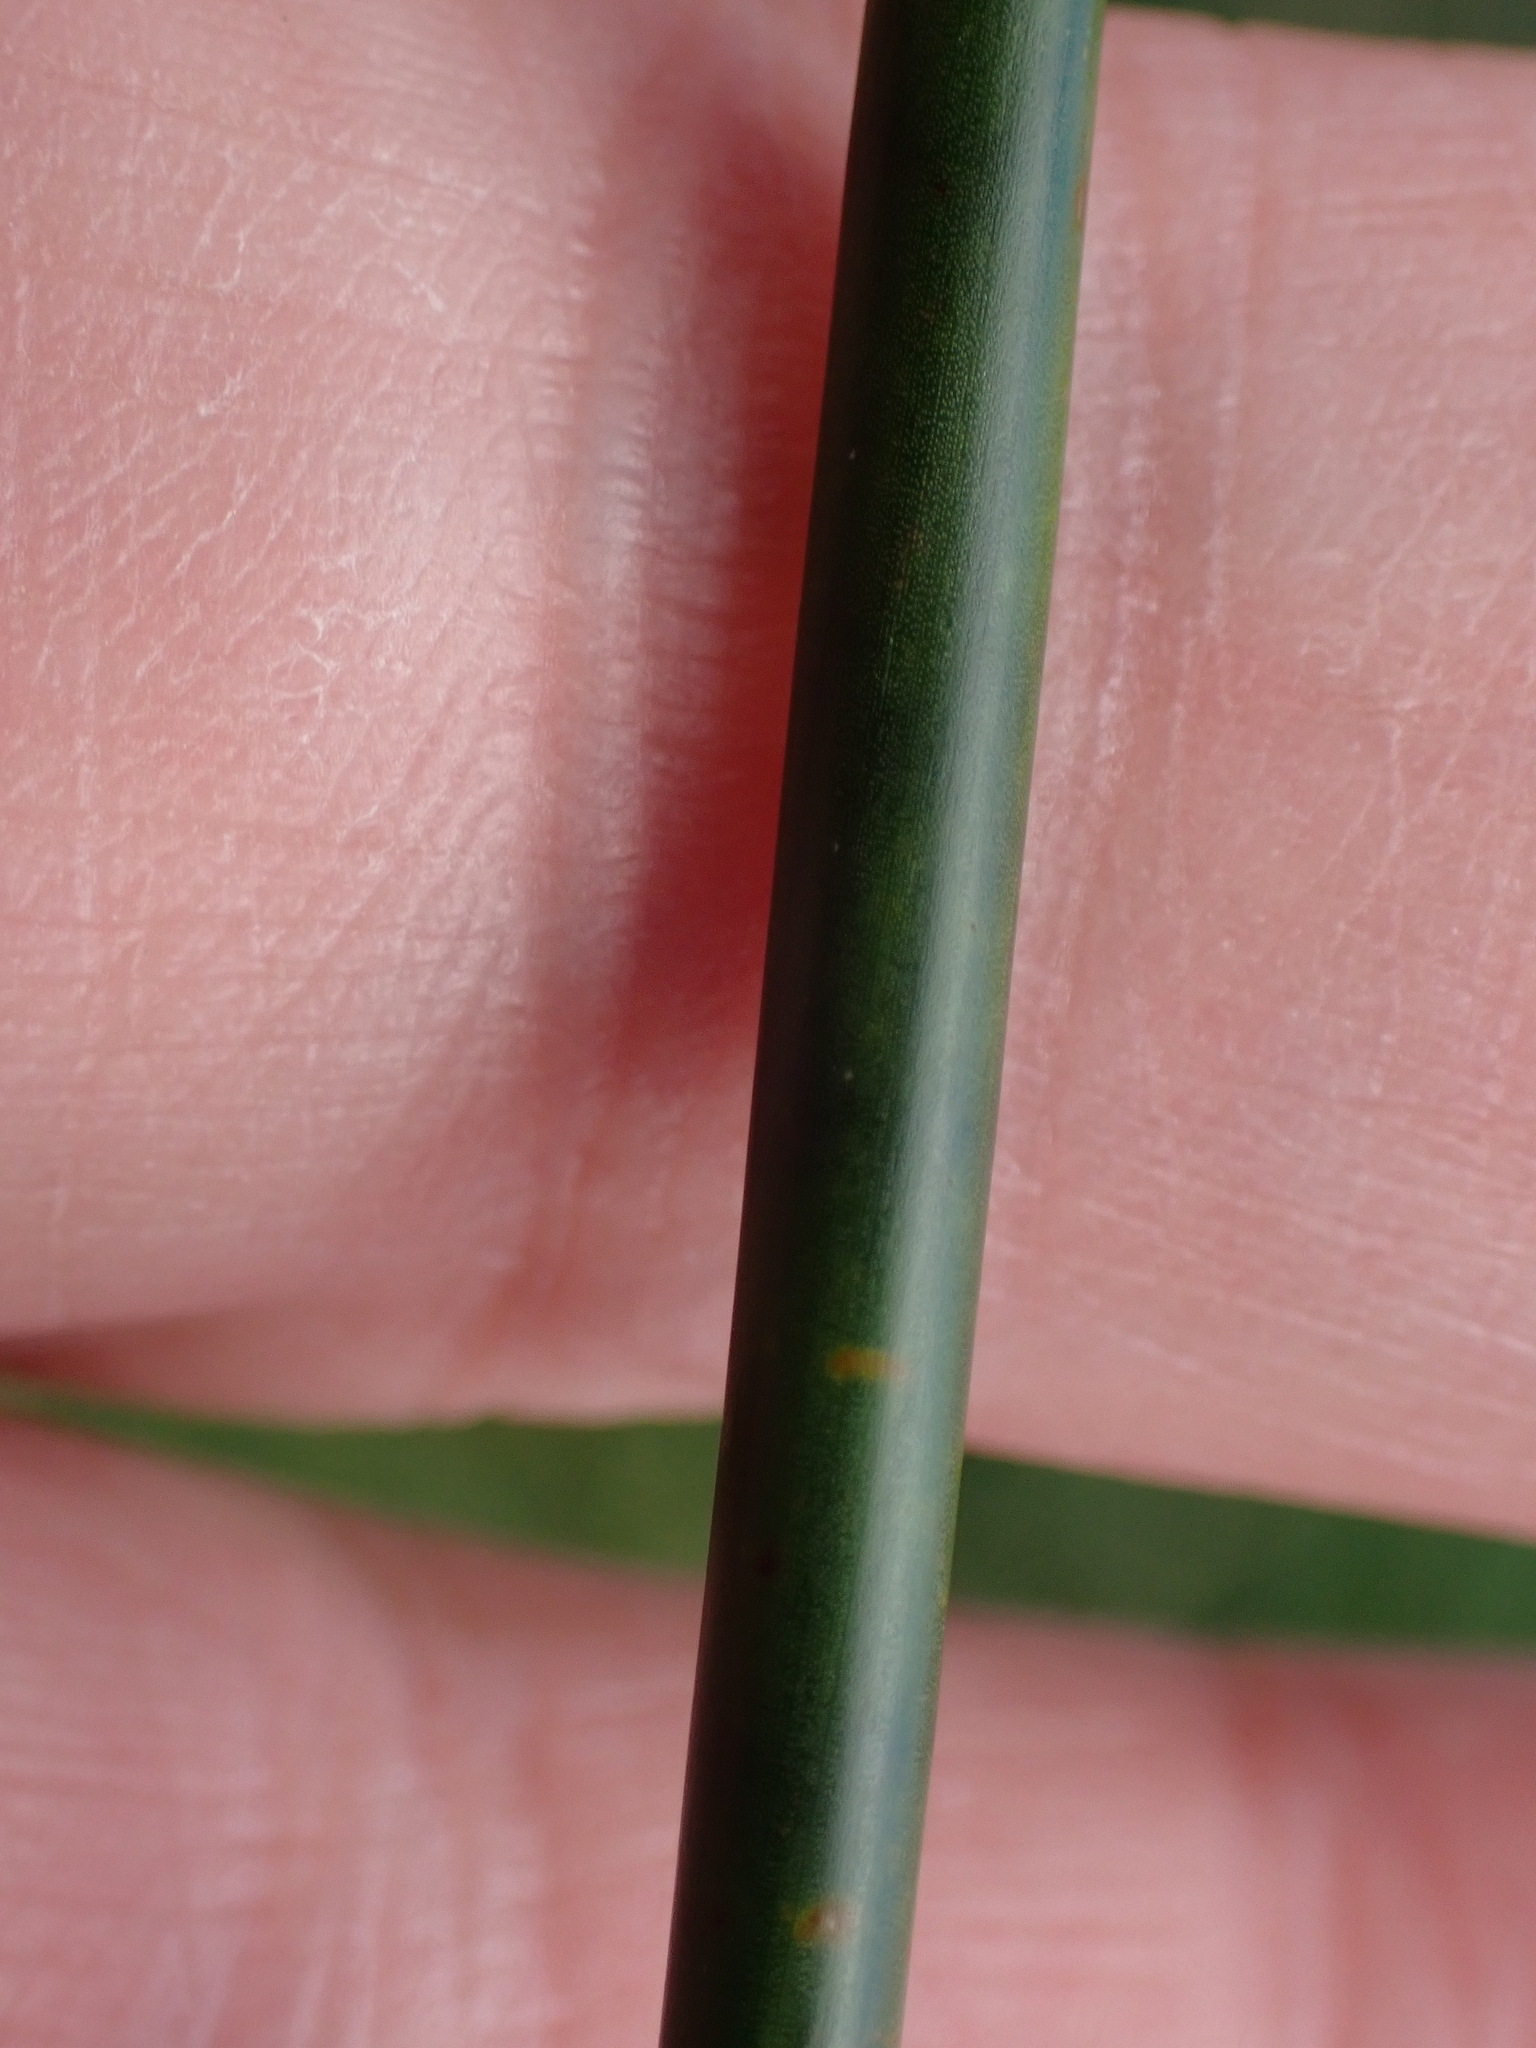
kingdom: Plantae
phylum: Tracheophyta
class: Liliopsida
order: Poales
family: Juncaceae
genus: Juncus
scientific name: Juncus subnodulosus
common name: Blunt-flowered rush
